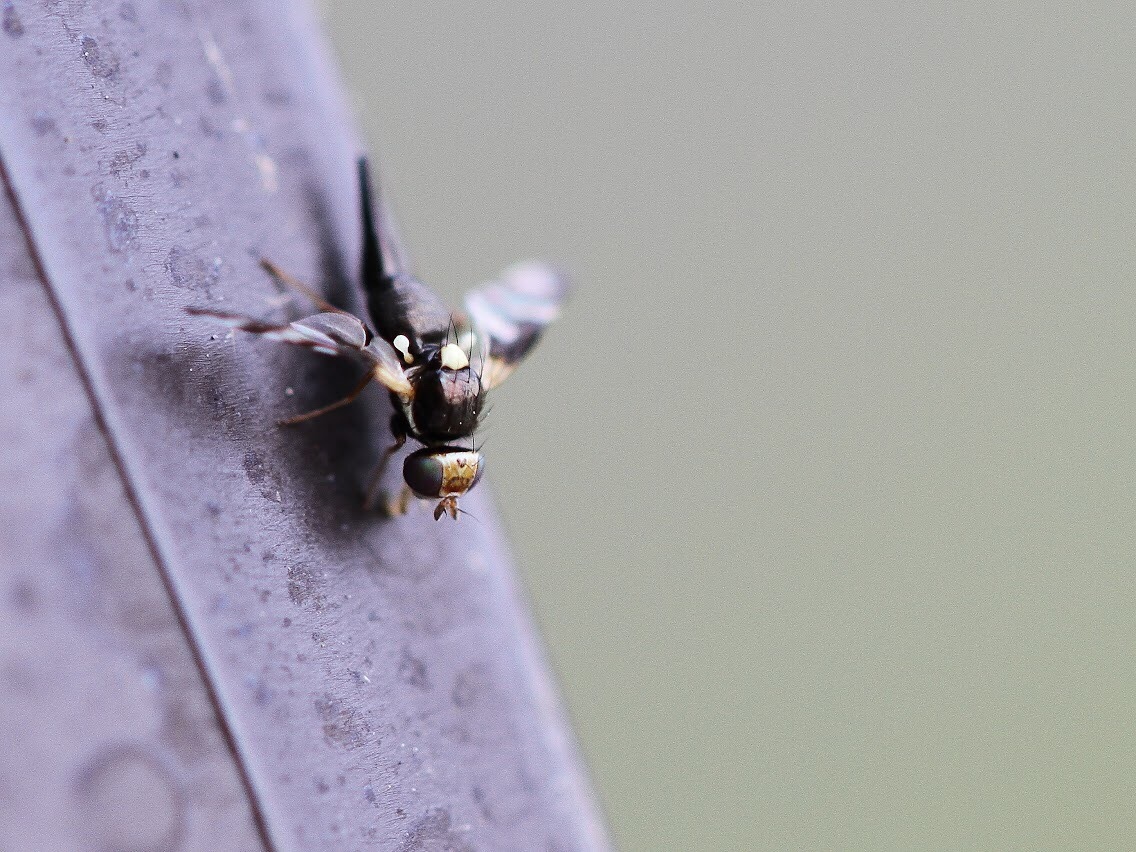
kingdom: Animalia
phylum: Arthropoda
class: Insecta
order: Diptera
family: Tephritidae
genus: Urophora
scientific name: Urophora quadrifasciata
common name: Knapweed seedhead fly
